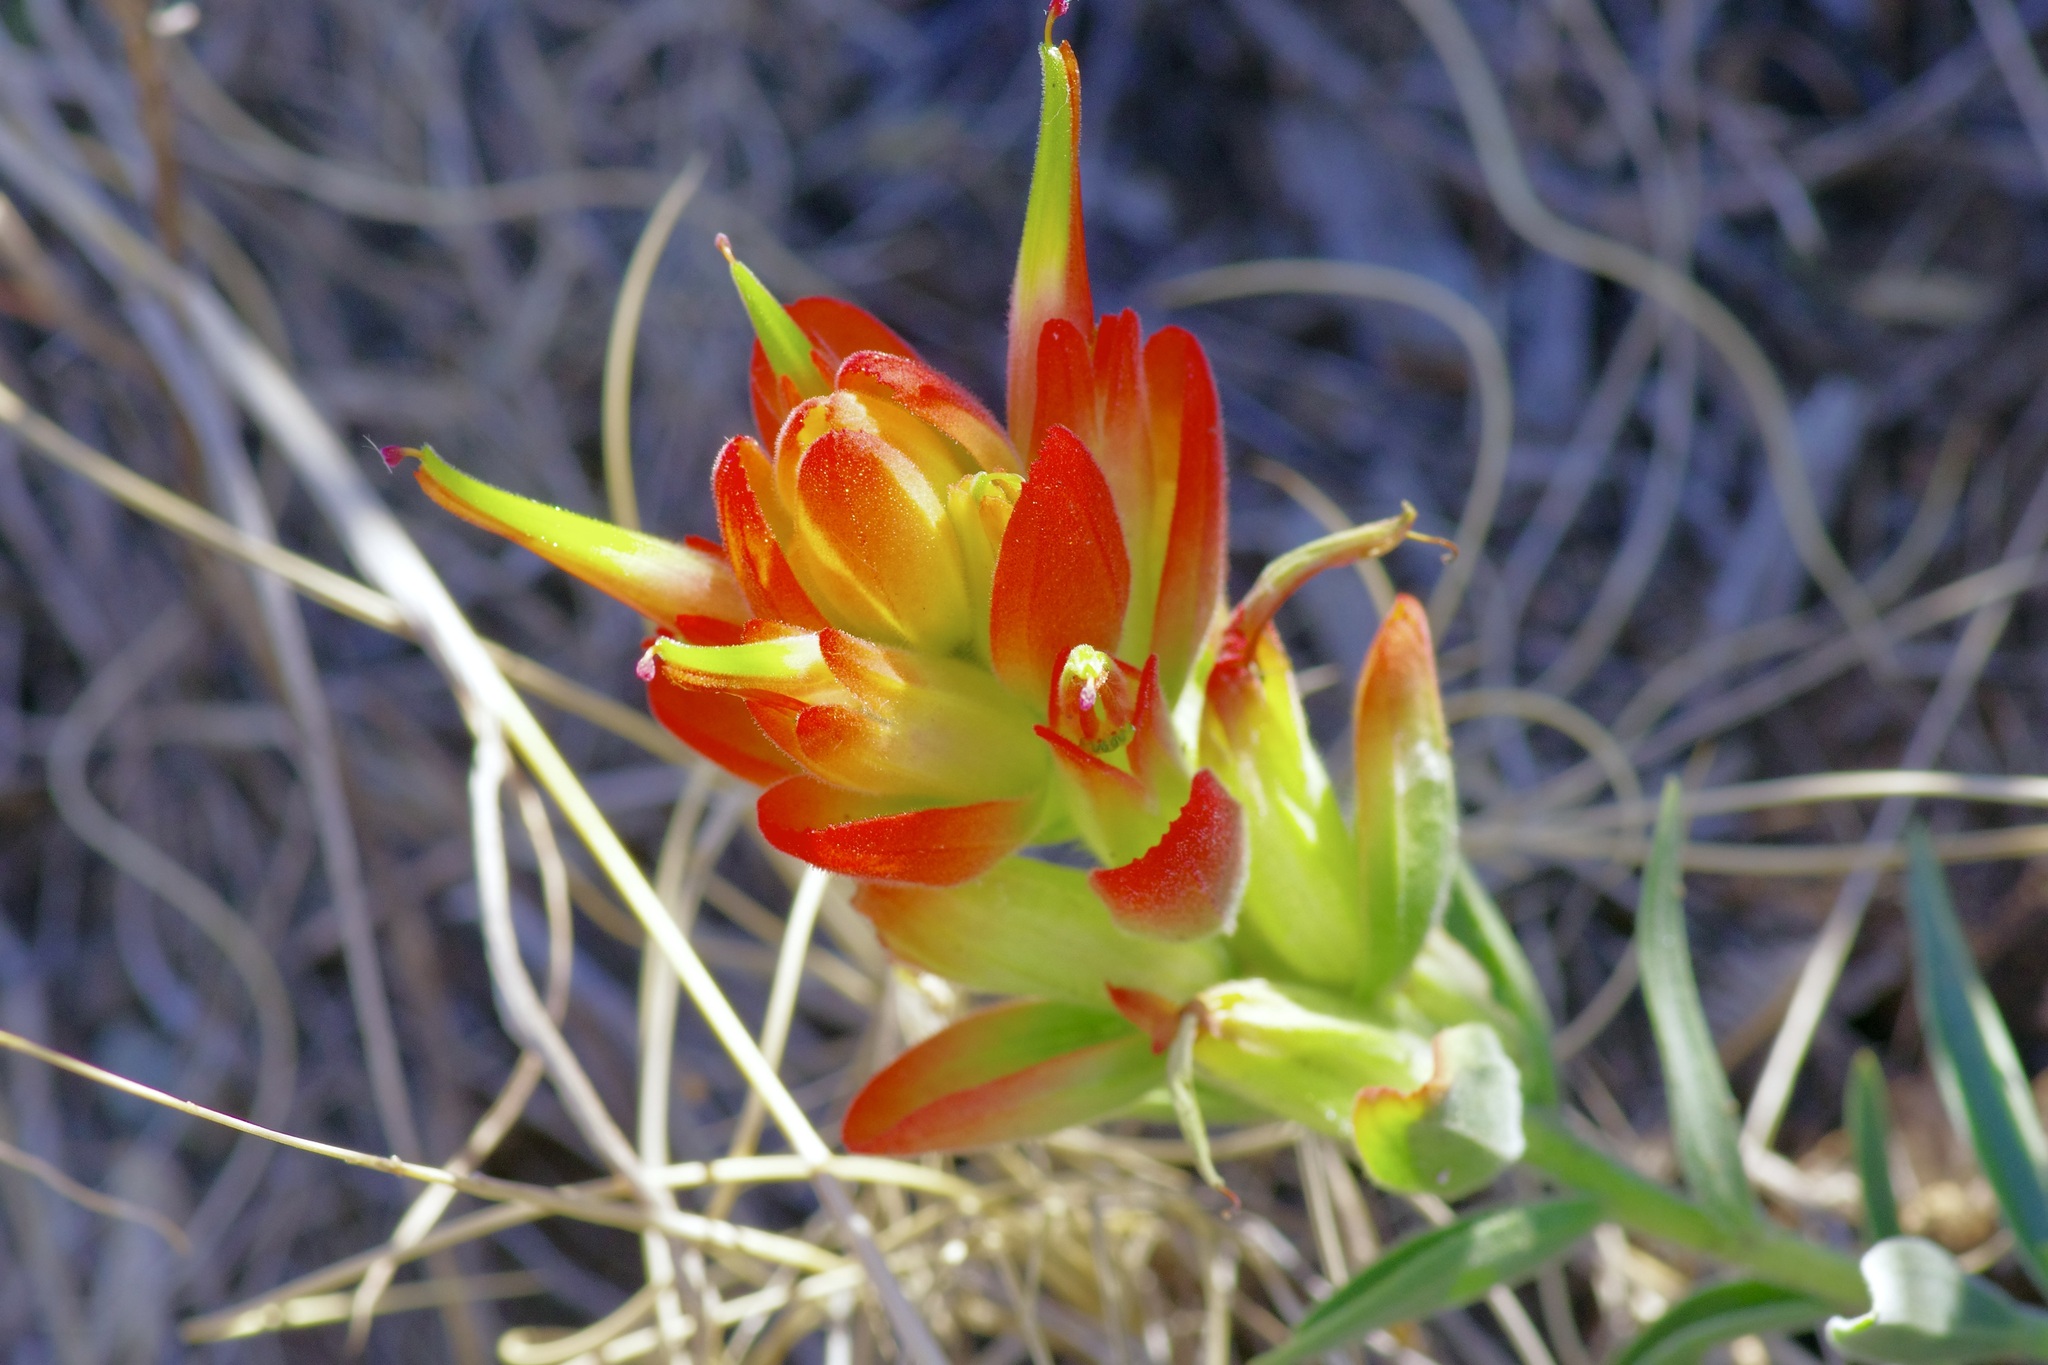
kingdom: Plantae
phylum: Tracheophyta
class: Magnoliopsida
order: Lamiales
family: Orobanchaceae
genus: Castilleja
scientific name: Castilleja integra
